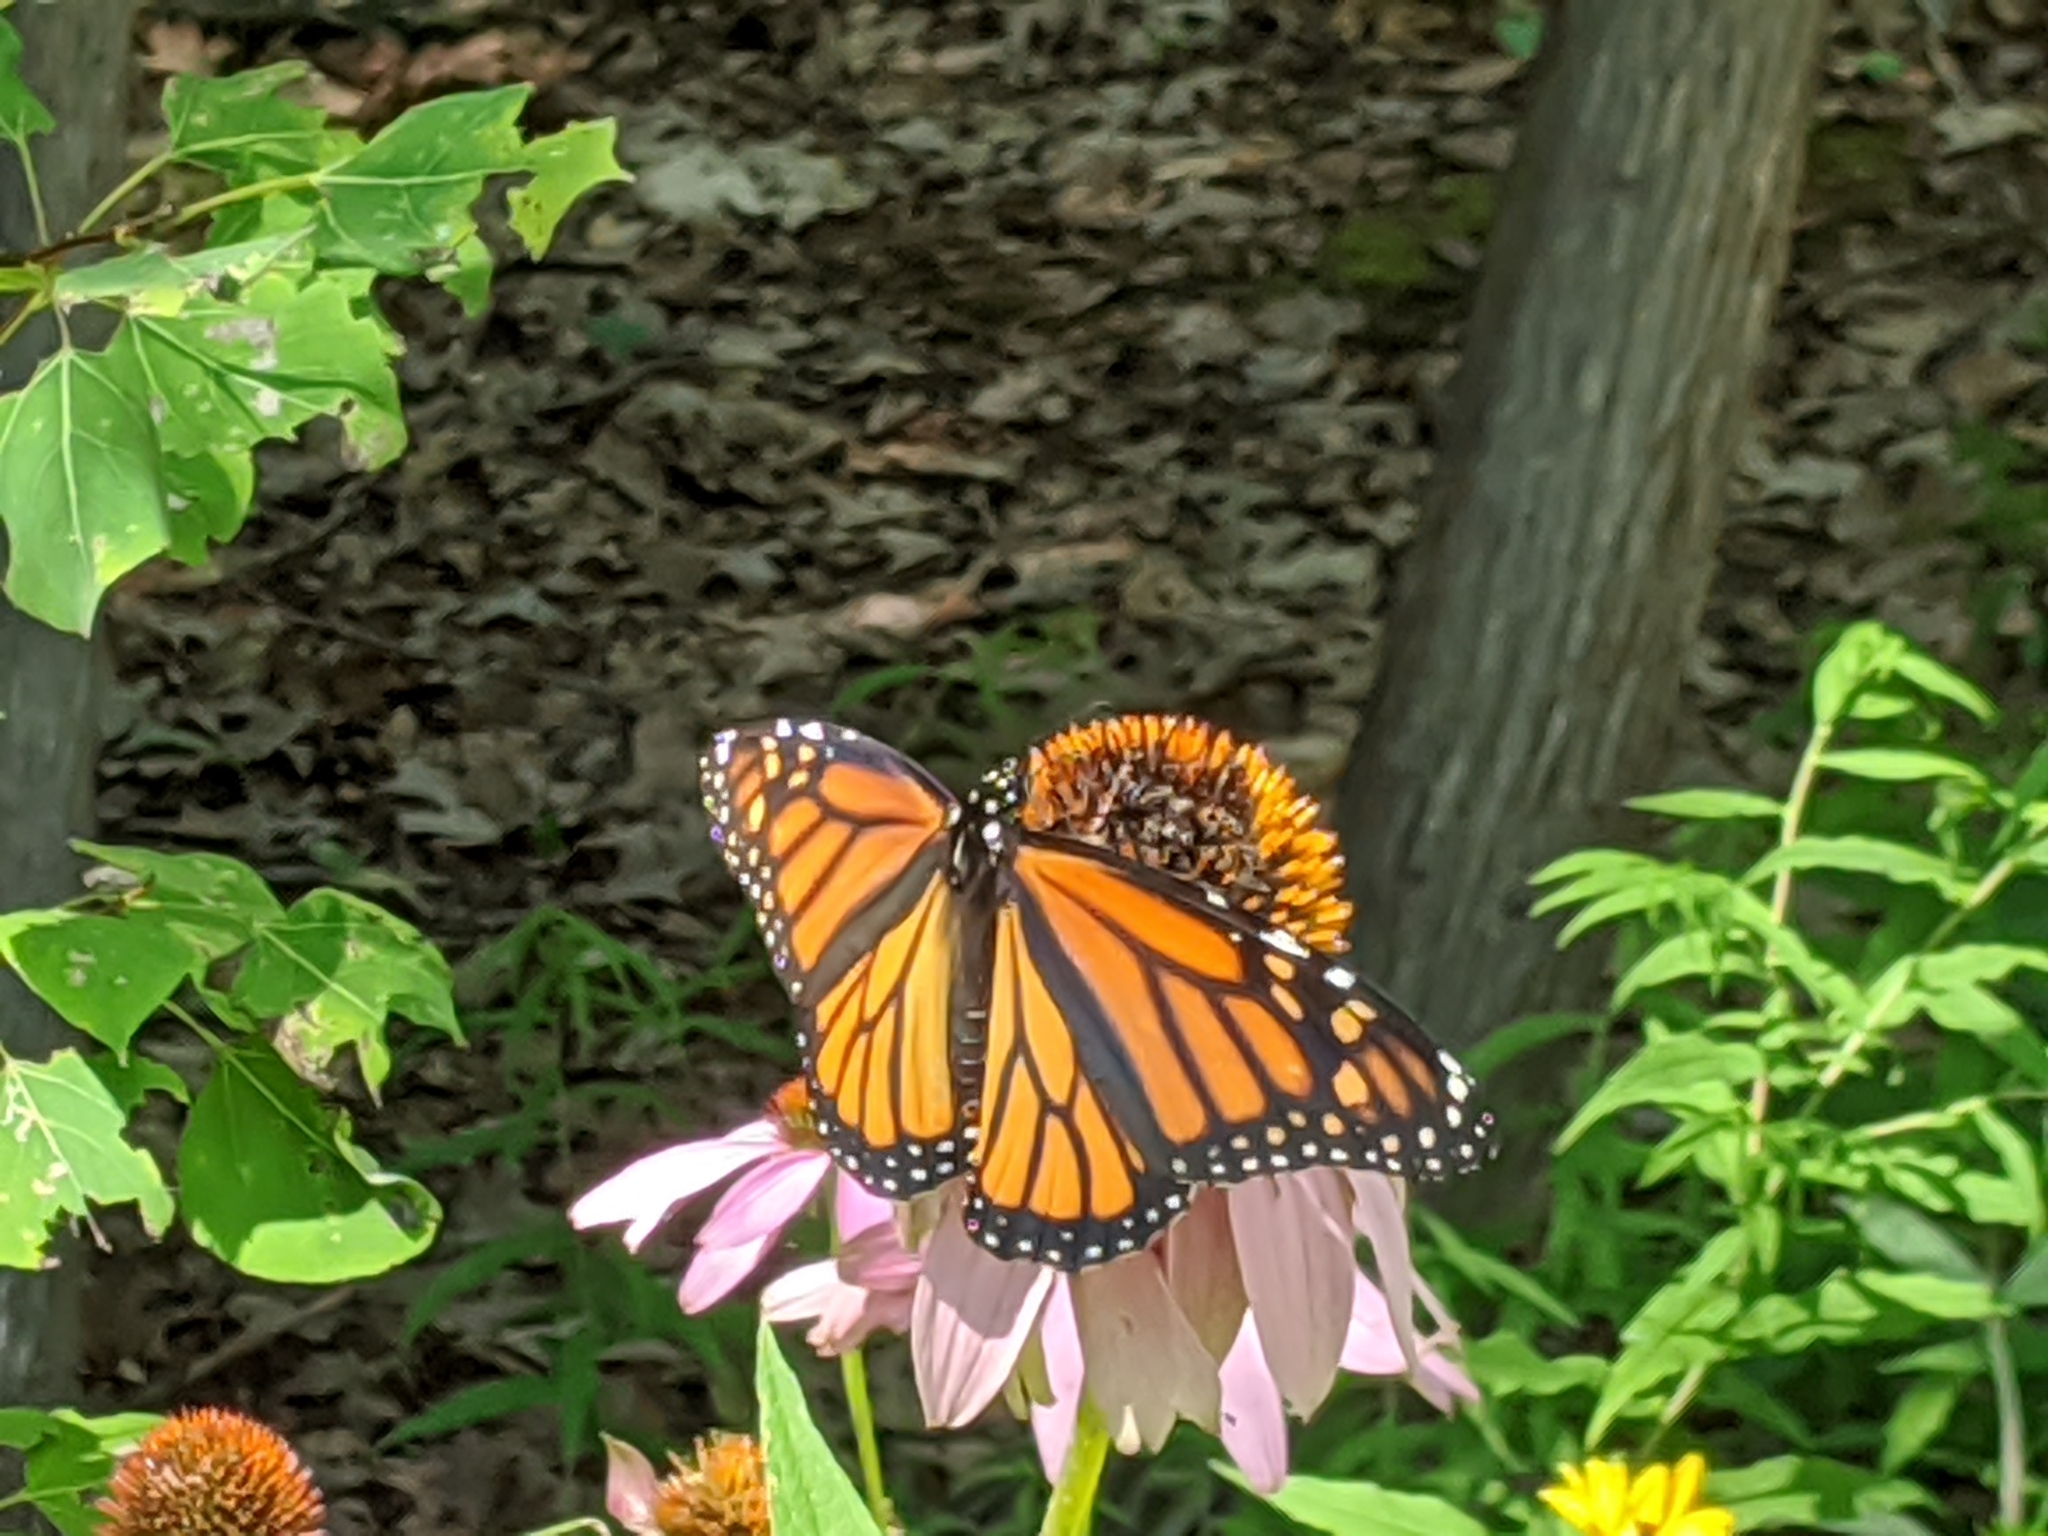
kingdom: Animalia
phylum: Arthropoda
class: Insecta
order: Lepidoptera
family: Nymphalidae
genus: Danaus
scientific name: Danaus plexippus
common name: Monarch
